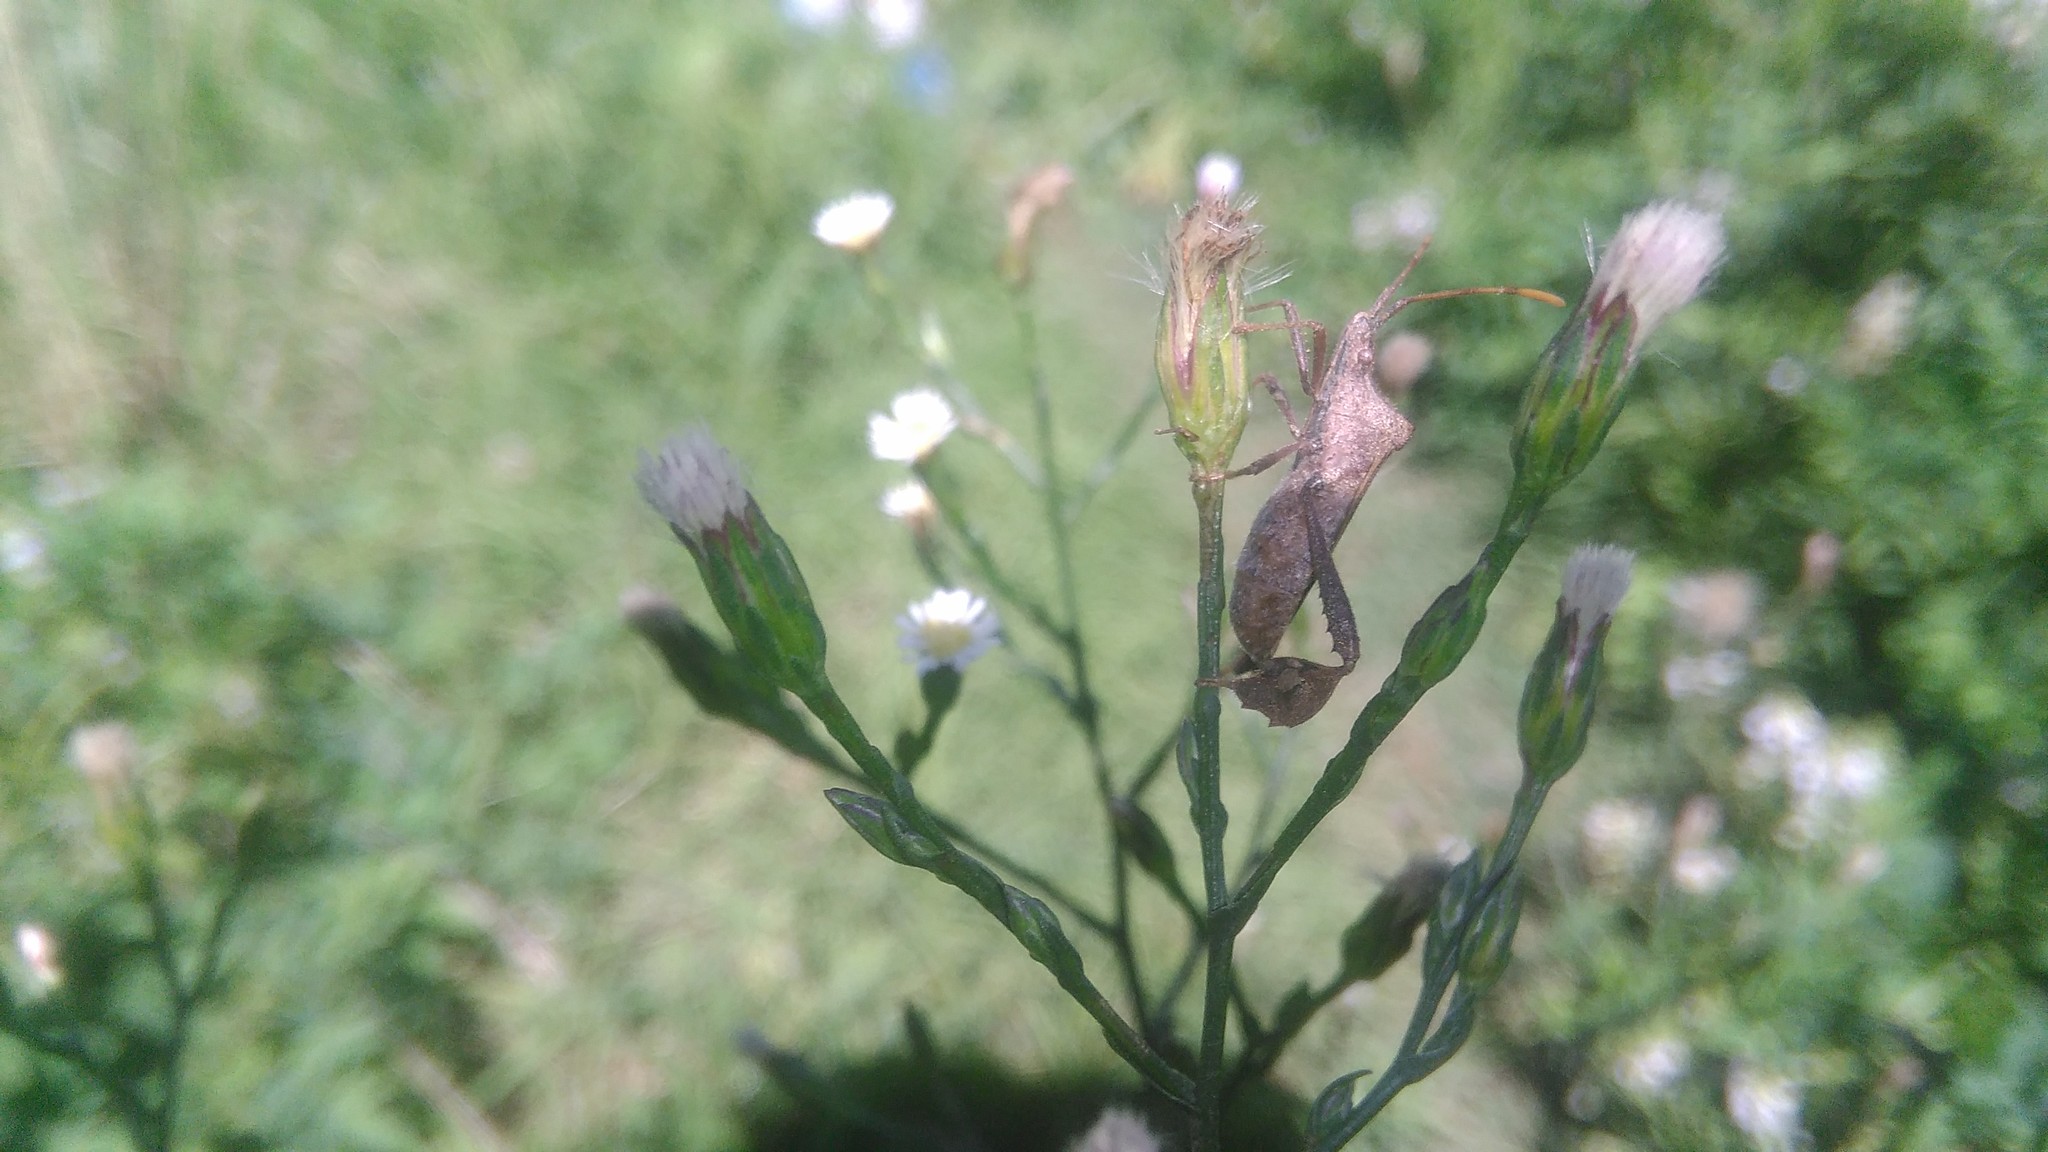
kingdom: Animalia
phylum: Arthropoda
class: Insecta
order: Hemiptera
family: Coreidae
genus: Leptoglossus
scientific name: Leptoglossus concaviusculus
